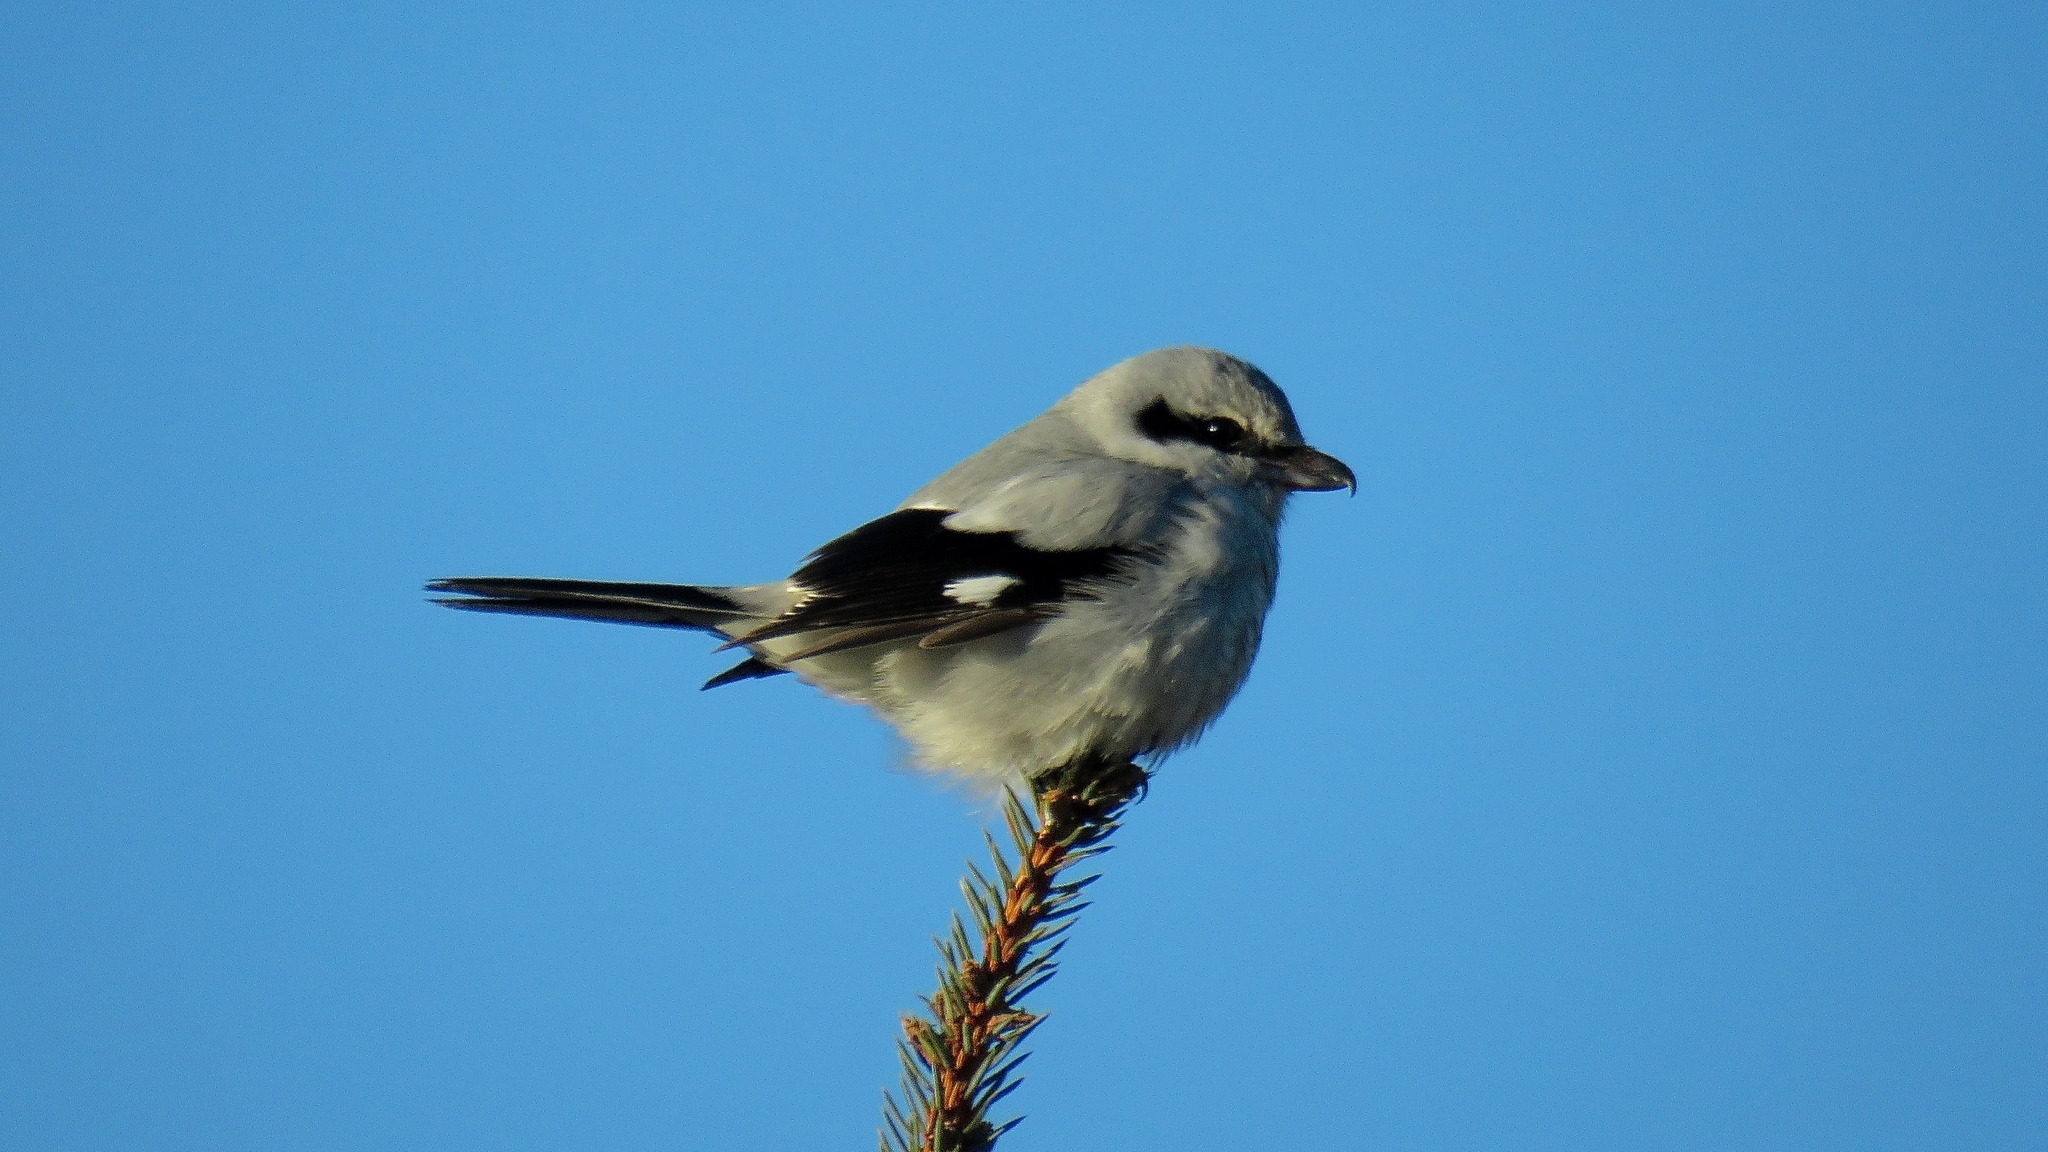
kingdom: Animalia
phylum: Chordata
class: Aves
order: Passeriformes
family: Laniidae
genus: Lanius
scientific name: Lanius borealis
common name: Northern shrike
